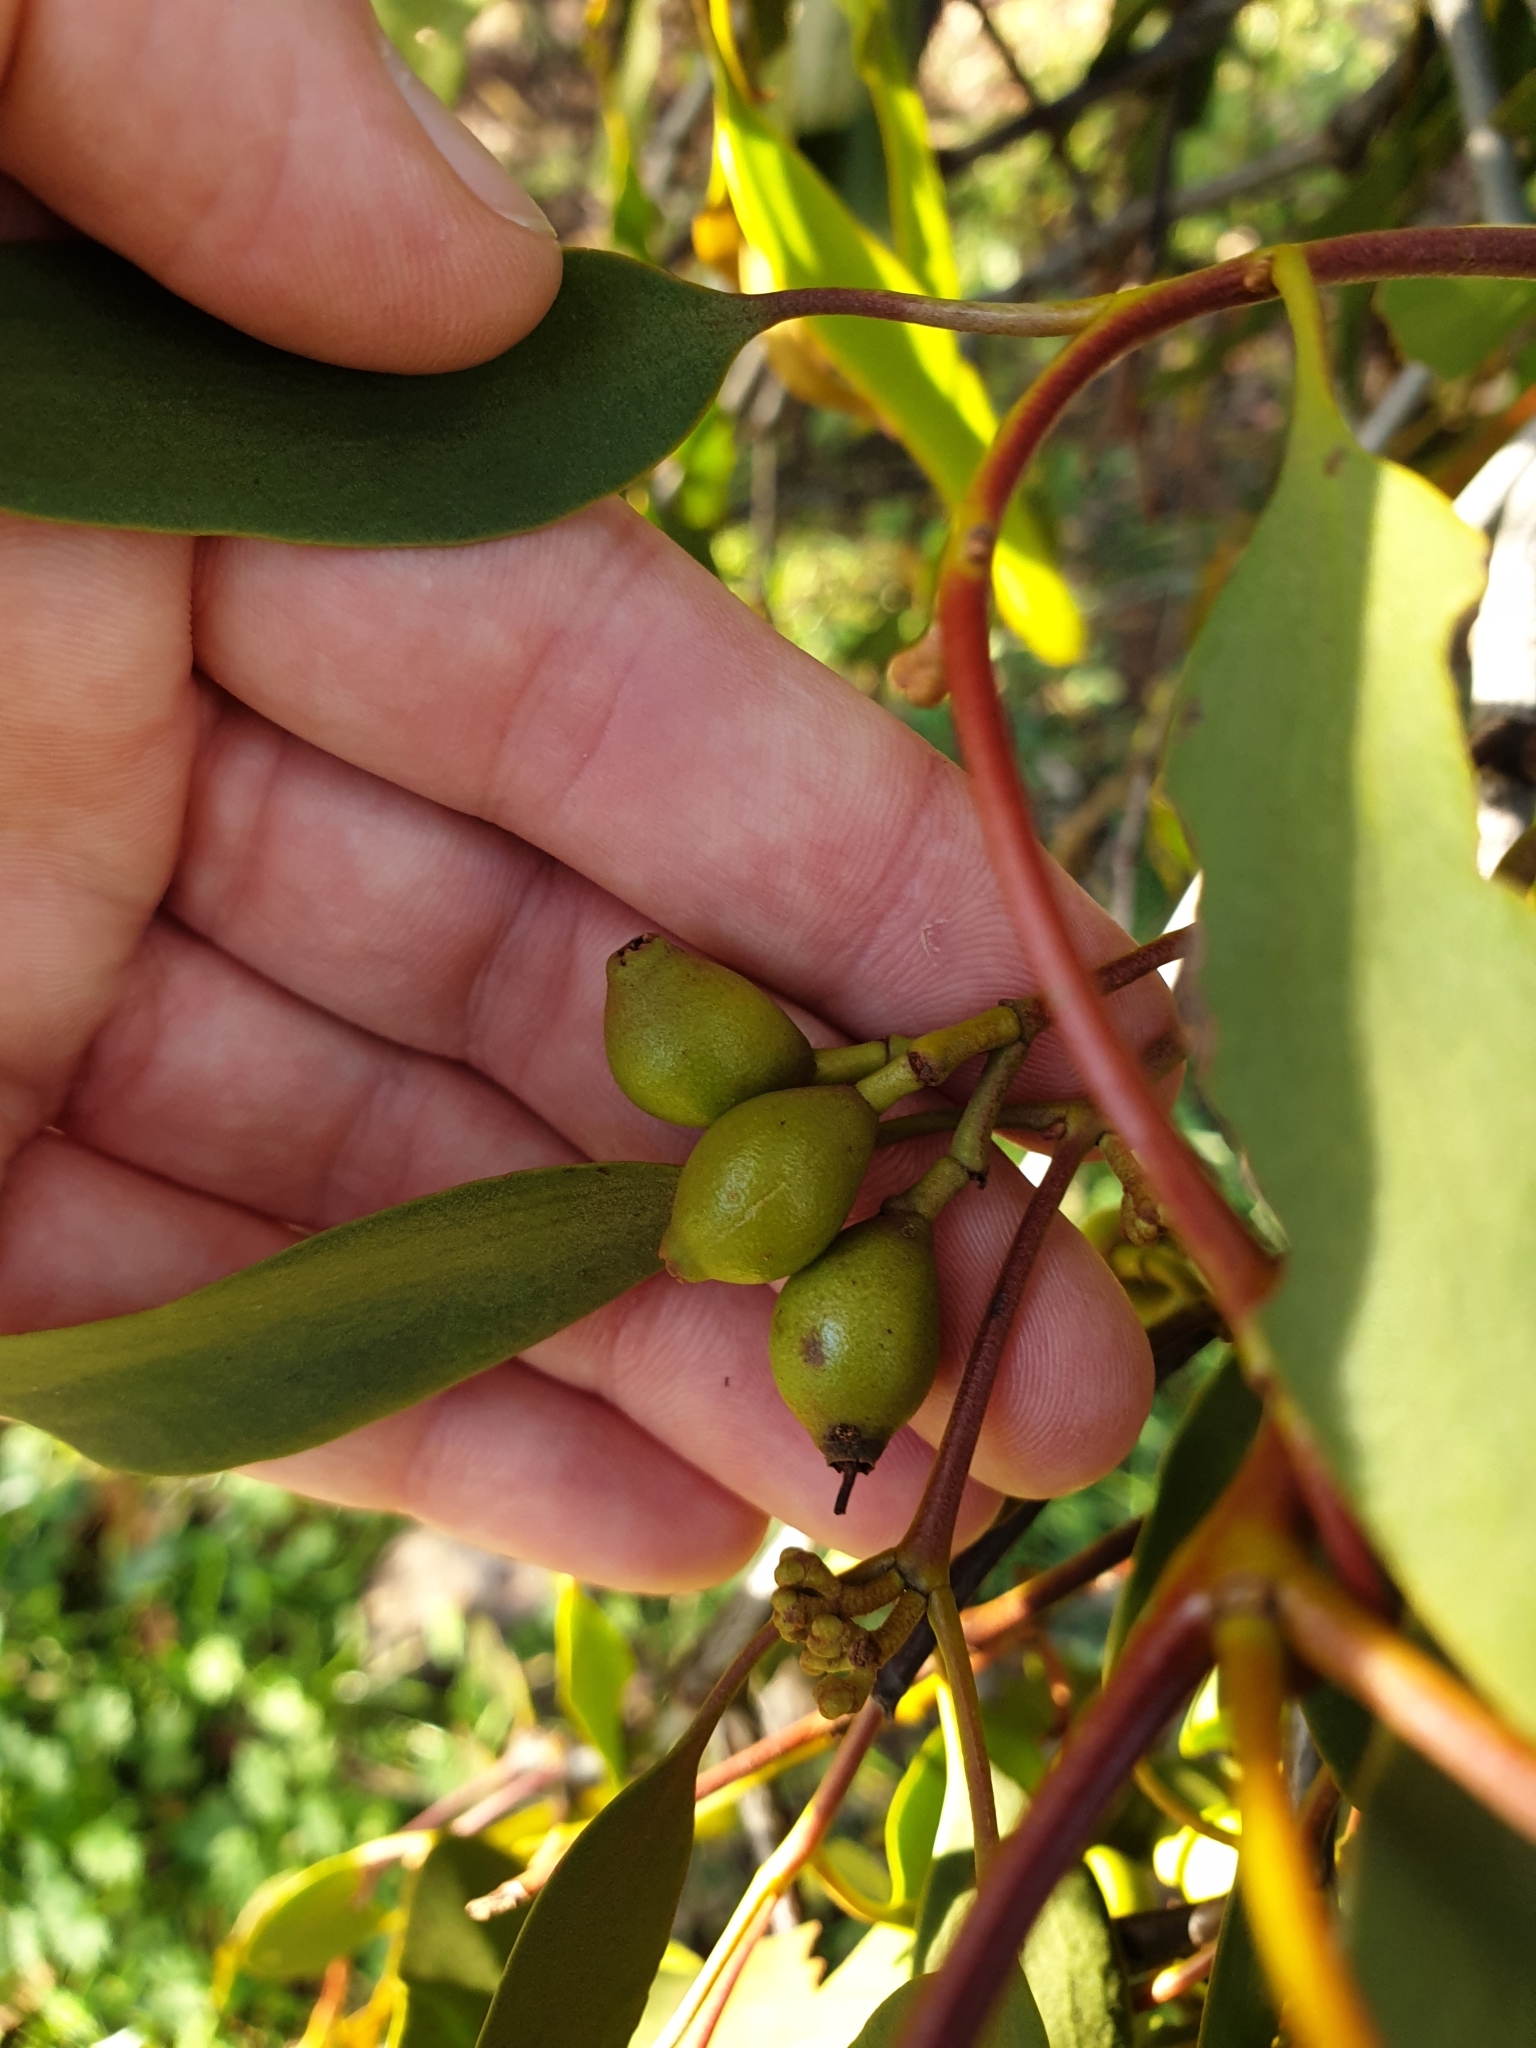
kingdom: Plantae
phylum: Tracheophyta
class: Magnoliopsida
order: Santalales
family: Loranthaceae
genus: Amyema
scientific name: Amyema miquelii
